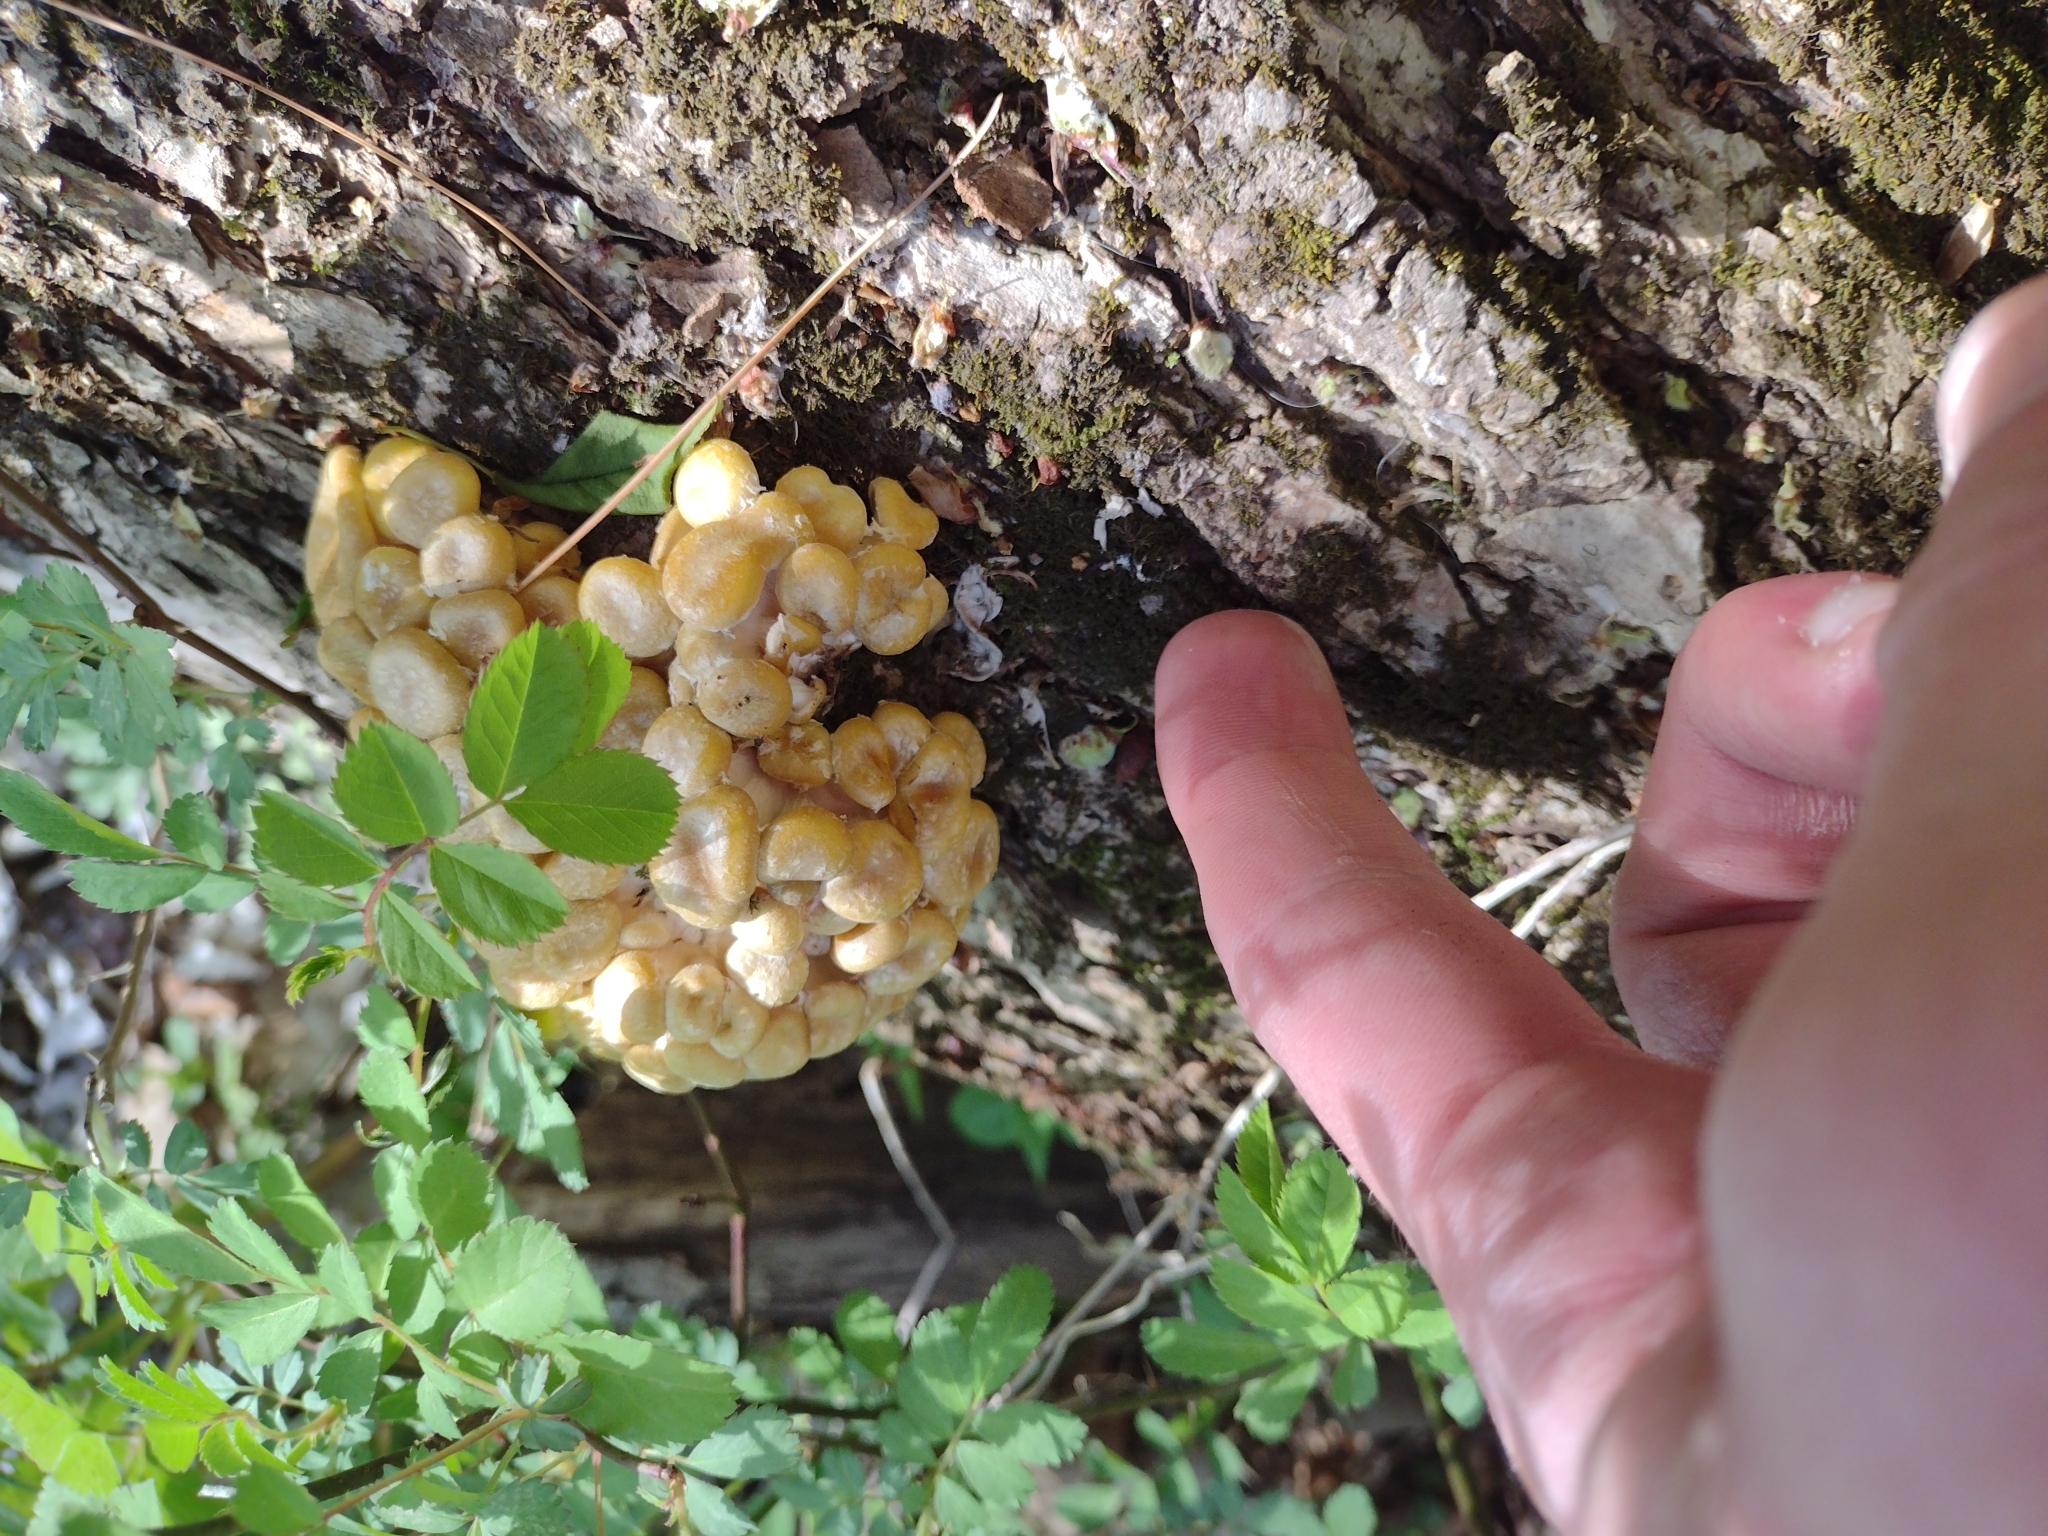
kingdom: Fungi
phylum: Basidiomycota
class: Agaricomycetes
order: Agaricales
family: Pleurotaceae
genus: Pleurotus
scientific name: Pleurotus citrinopileatus
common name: Golden oyster mushroom
